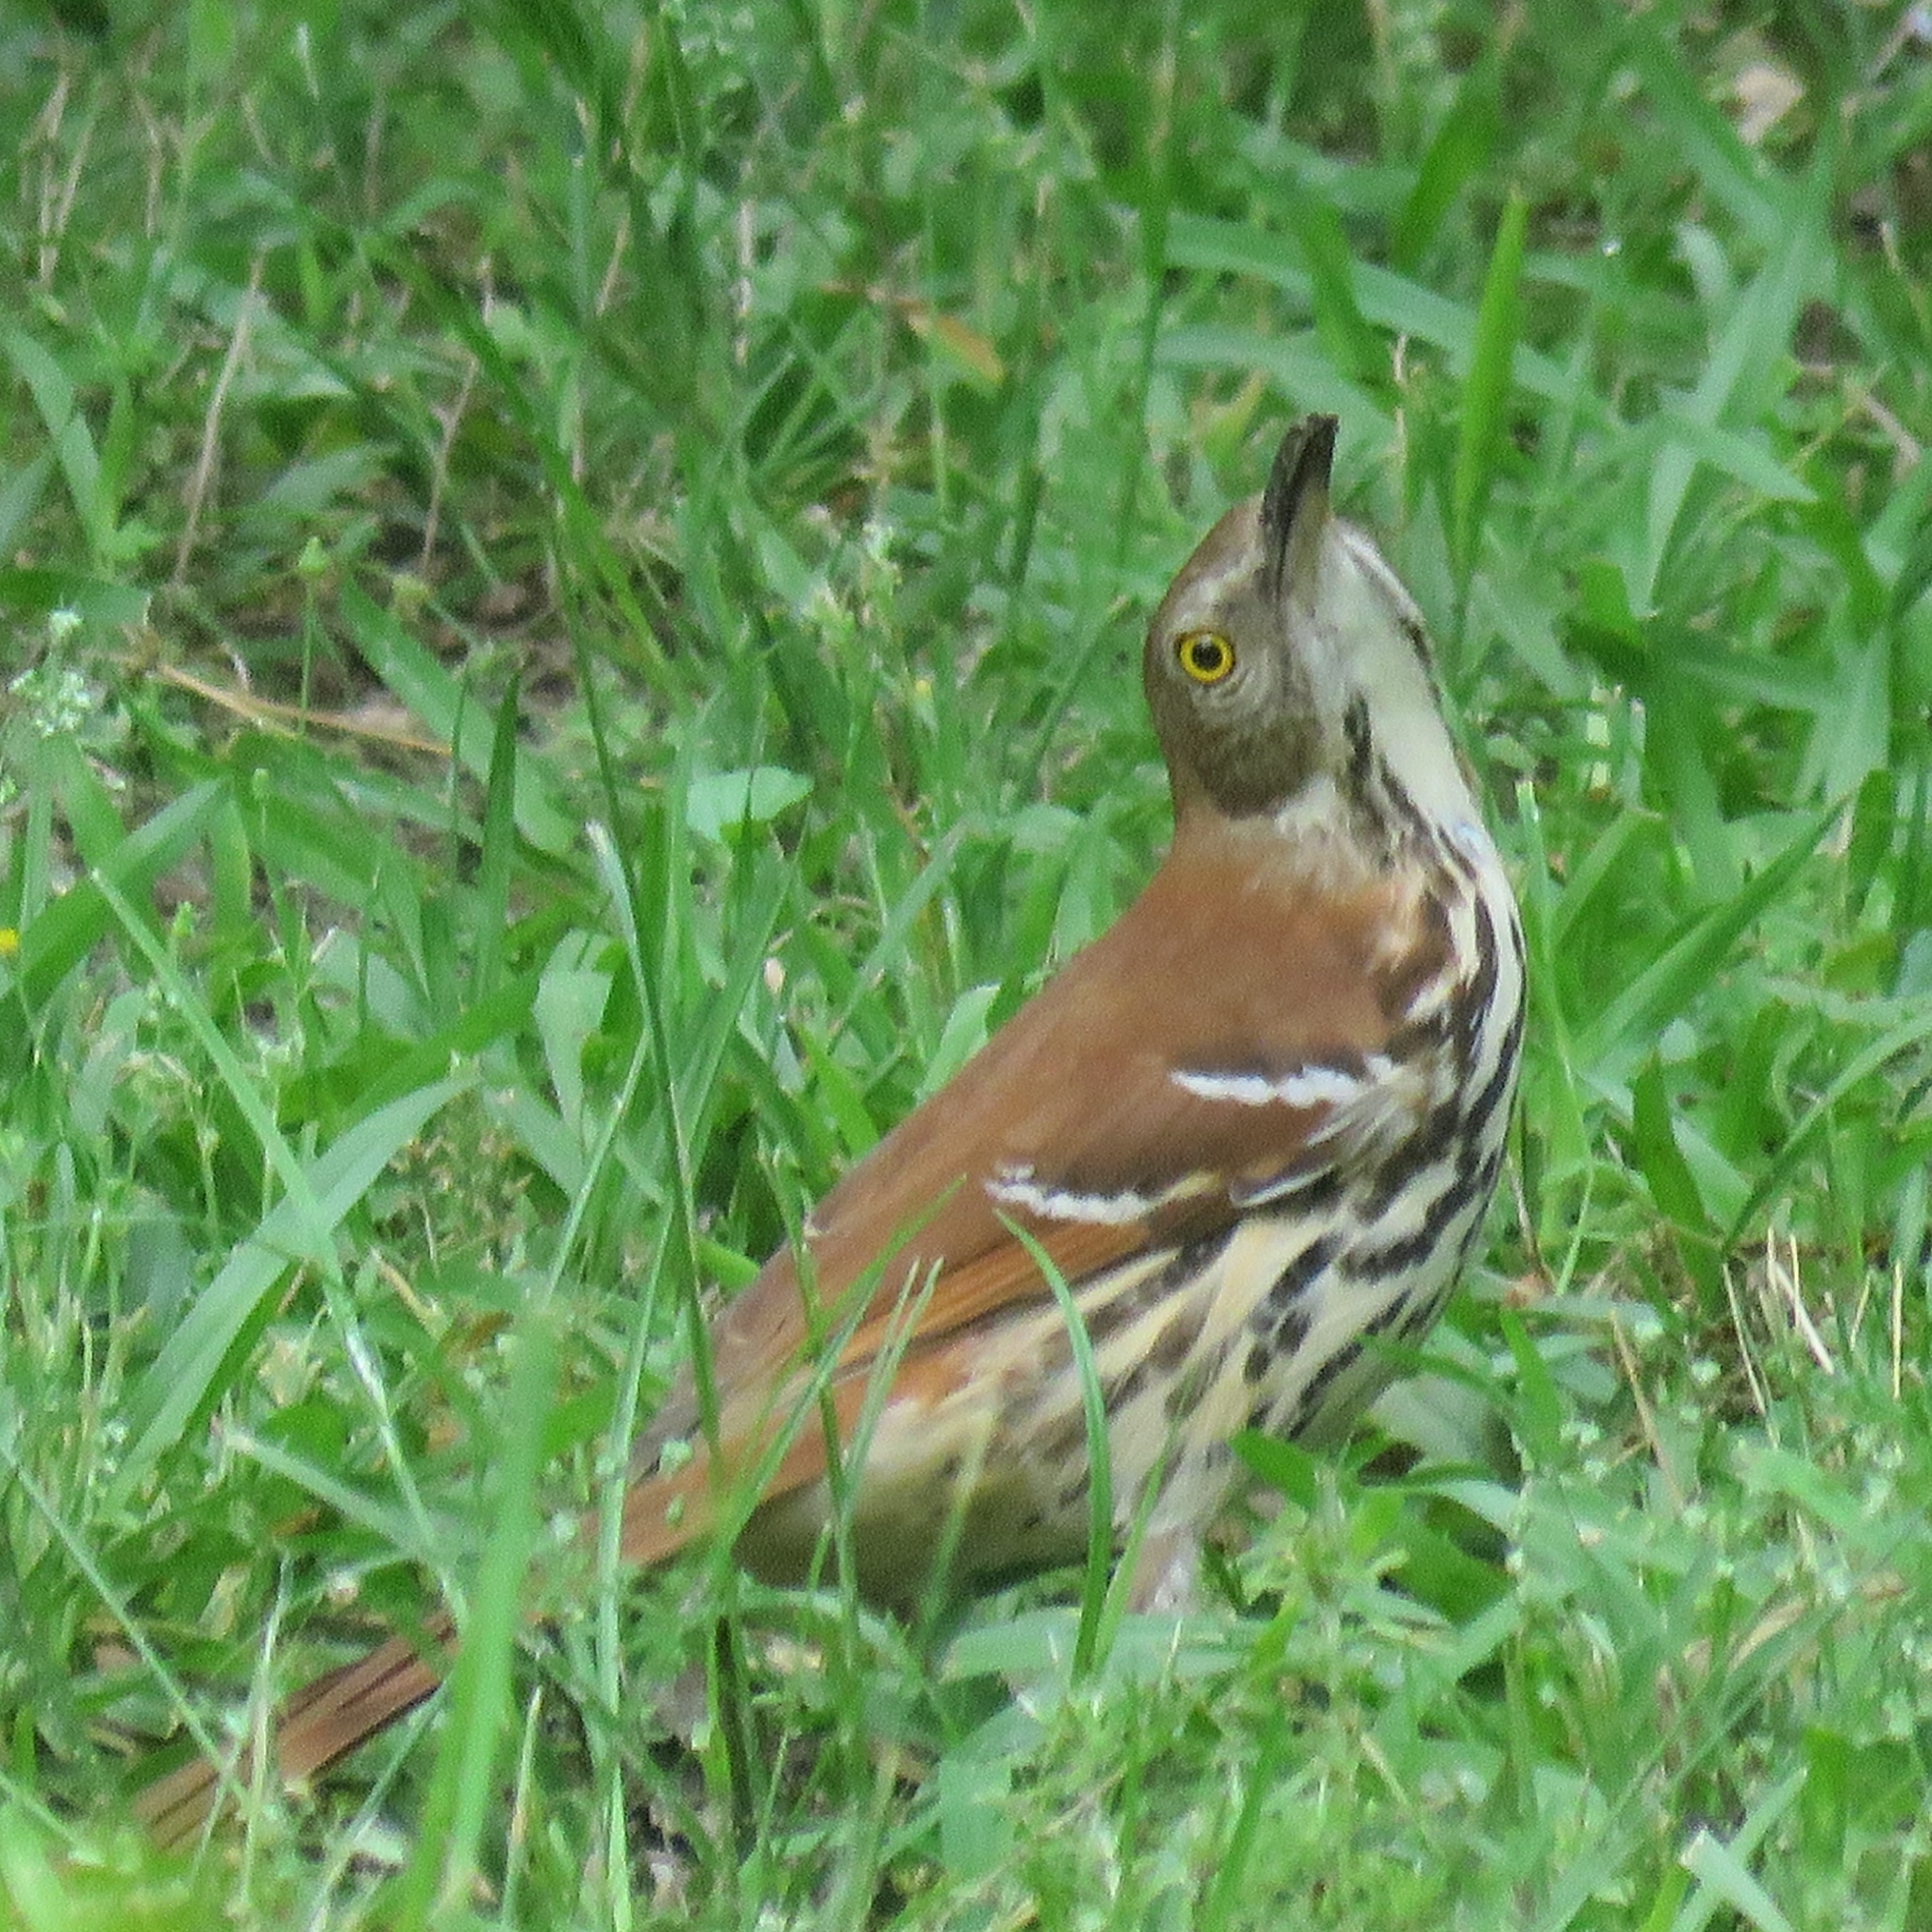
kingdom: Animalia
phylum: Chordata
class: Aves
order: Passeriformes
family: Mimidae
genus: Toxostoma
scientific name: Toxostoma rufum
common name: Brown thrasher
